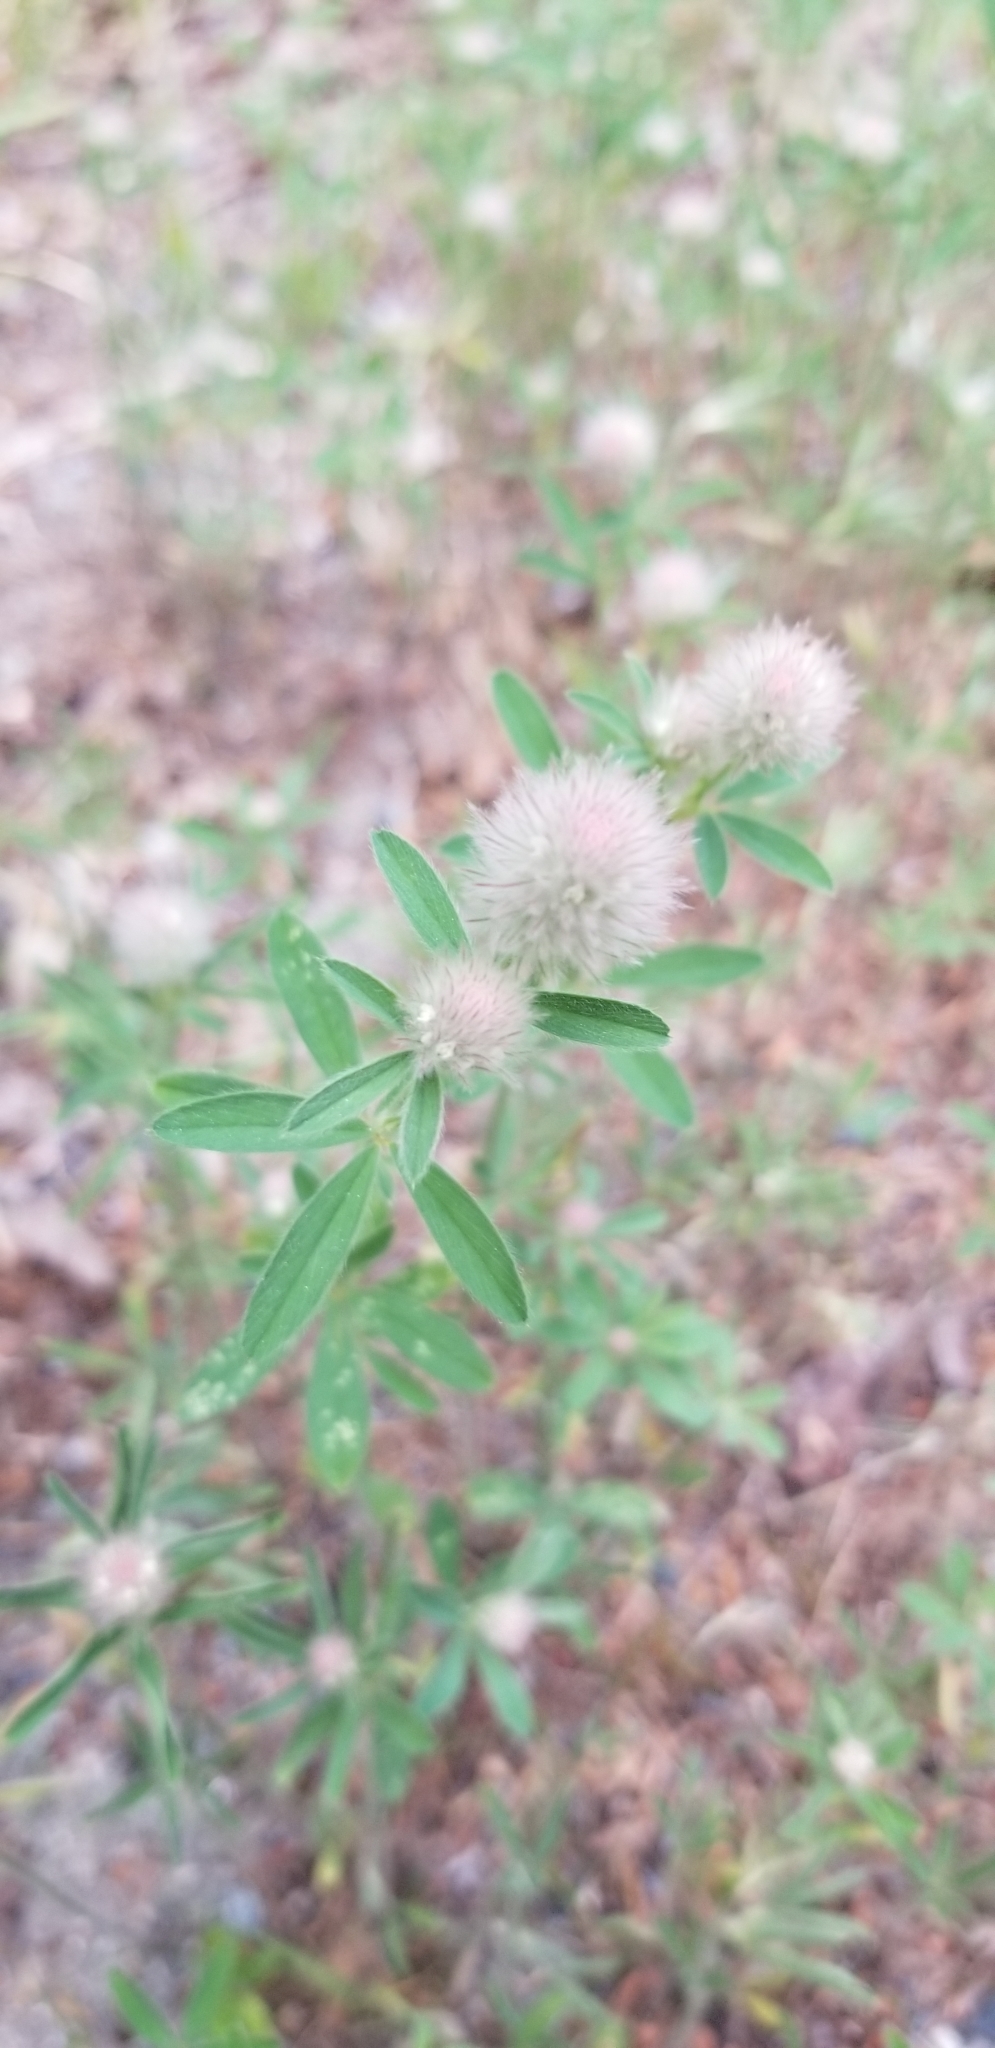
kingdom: Plantae
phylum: Tracheophyta
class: Magnoliopsida
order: Fabales
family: Fabaceae
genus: Trifolium
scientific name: Trifolium arvense
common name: Hare's-foot clover
